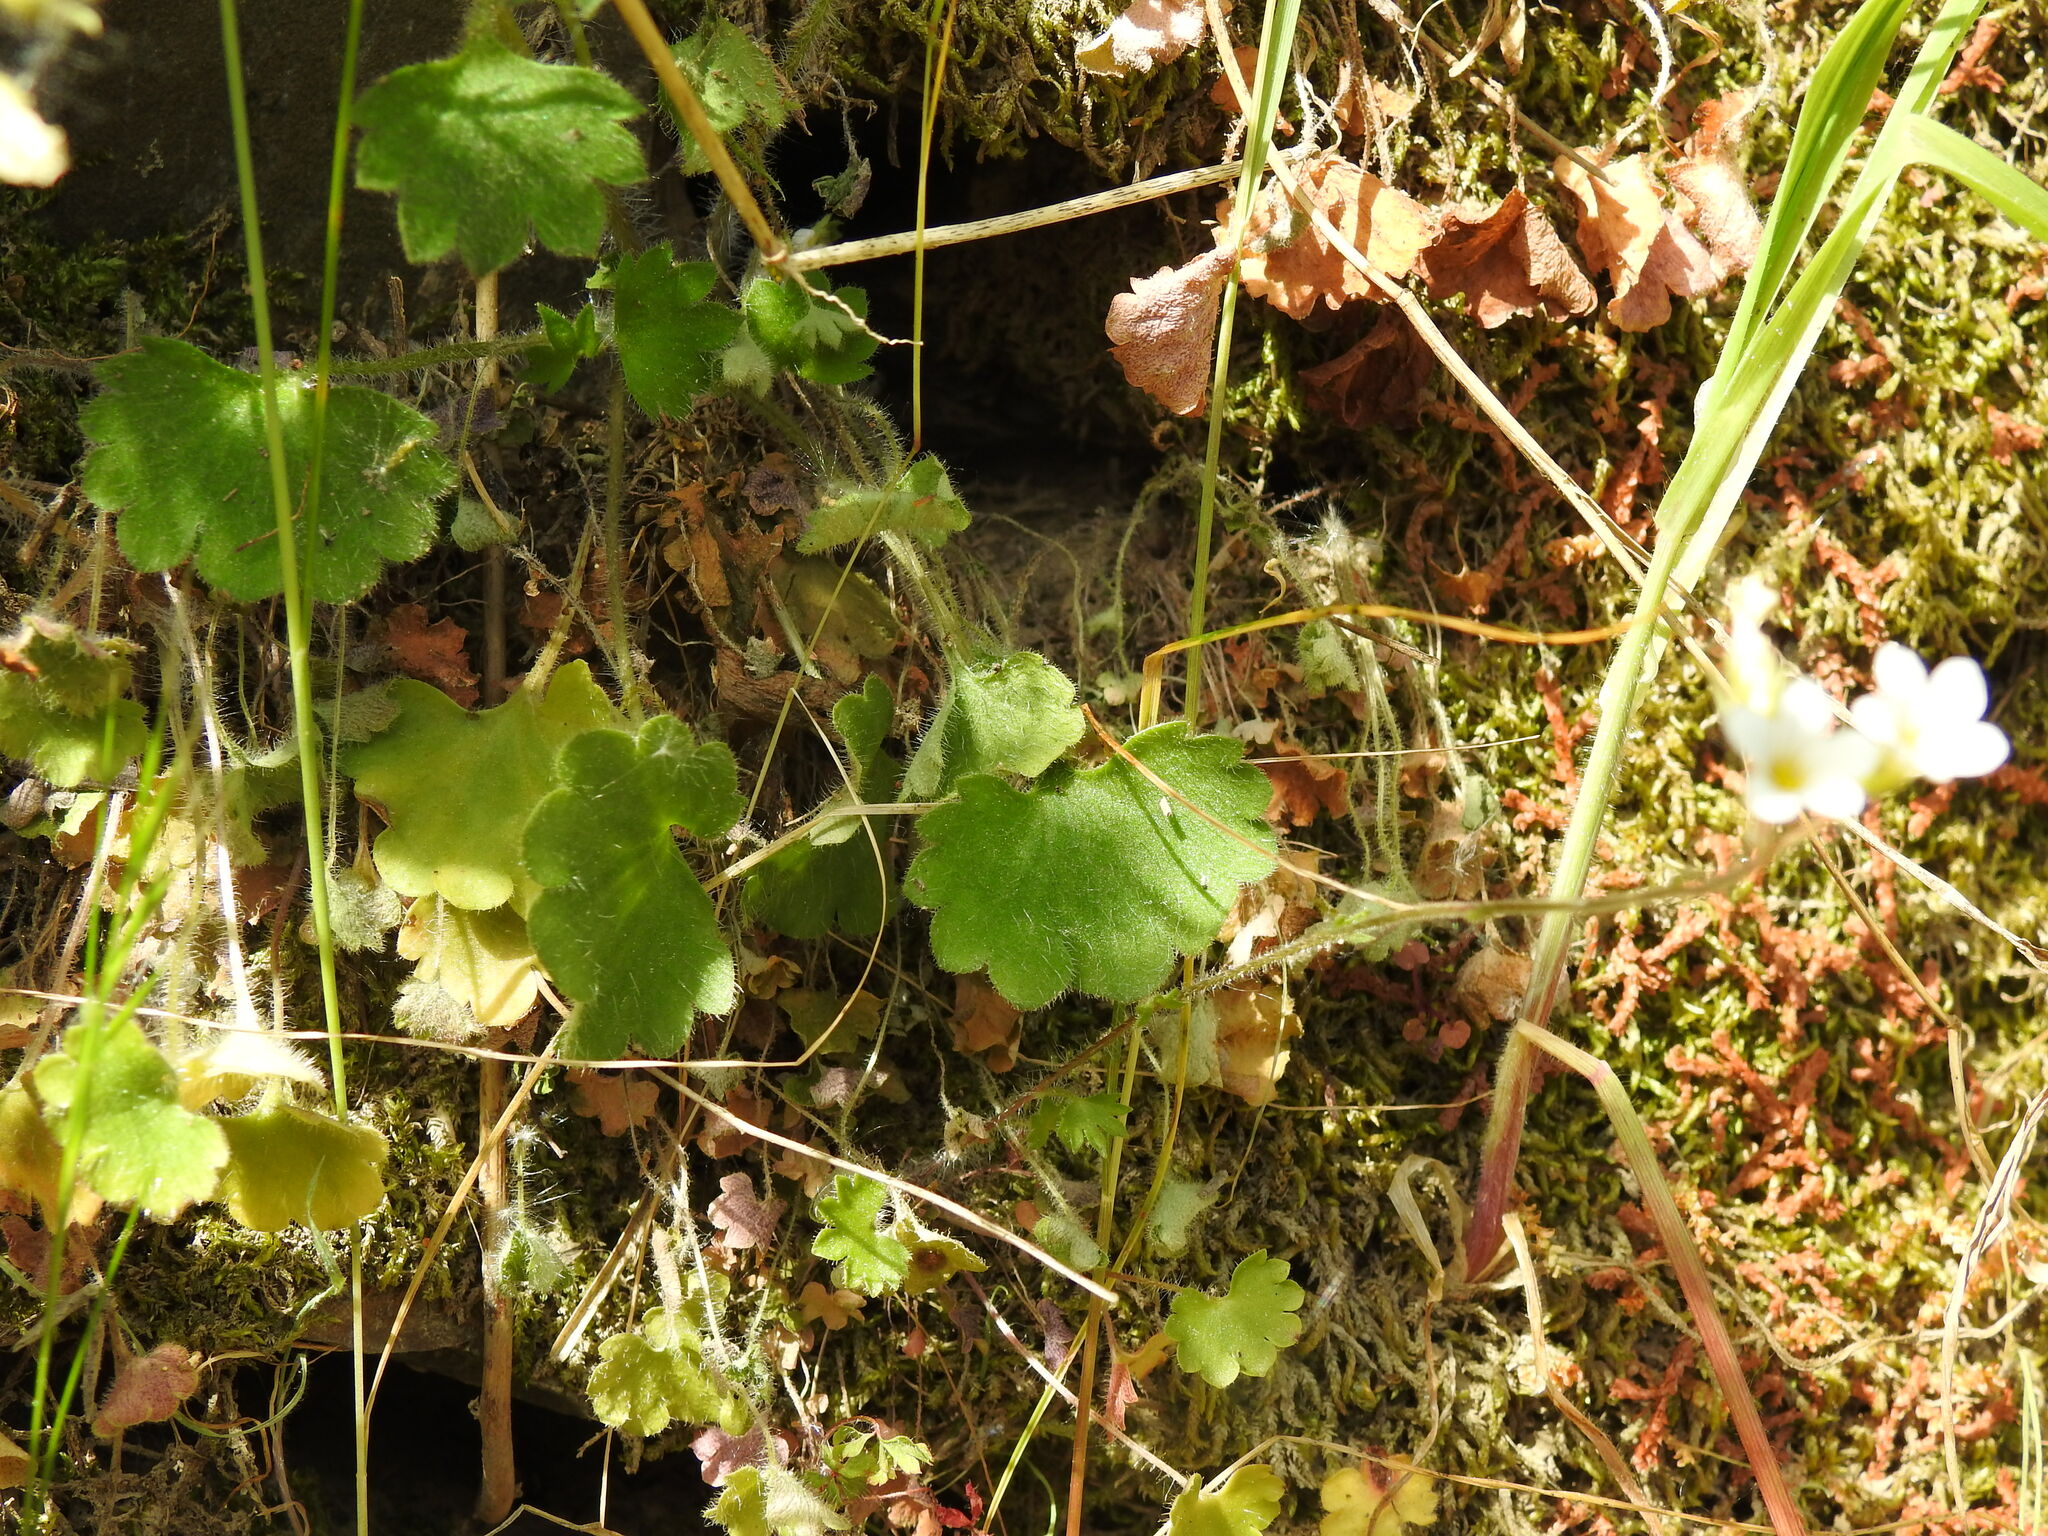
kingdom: Plantae
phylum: Tracheophyta
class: Magnoliopsida
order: Saxifragales
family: Saxifragaceae
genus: Saxifraga
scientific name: Saxifraga granulata
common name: Meadow saxifrage
